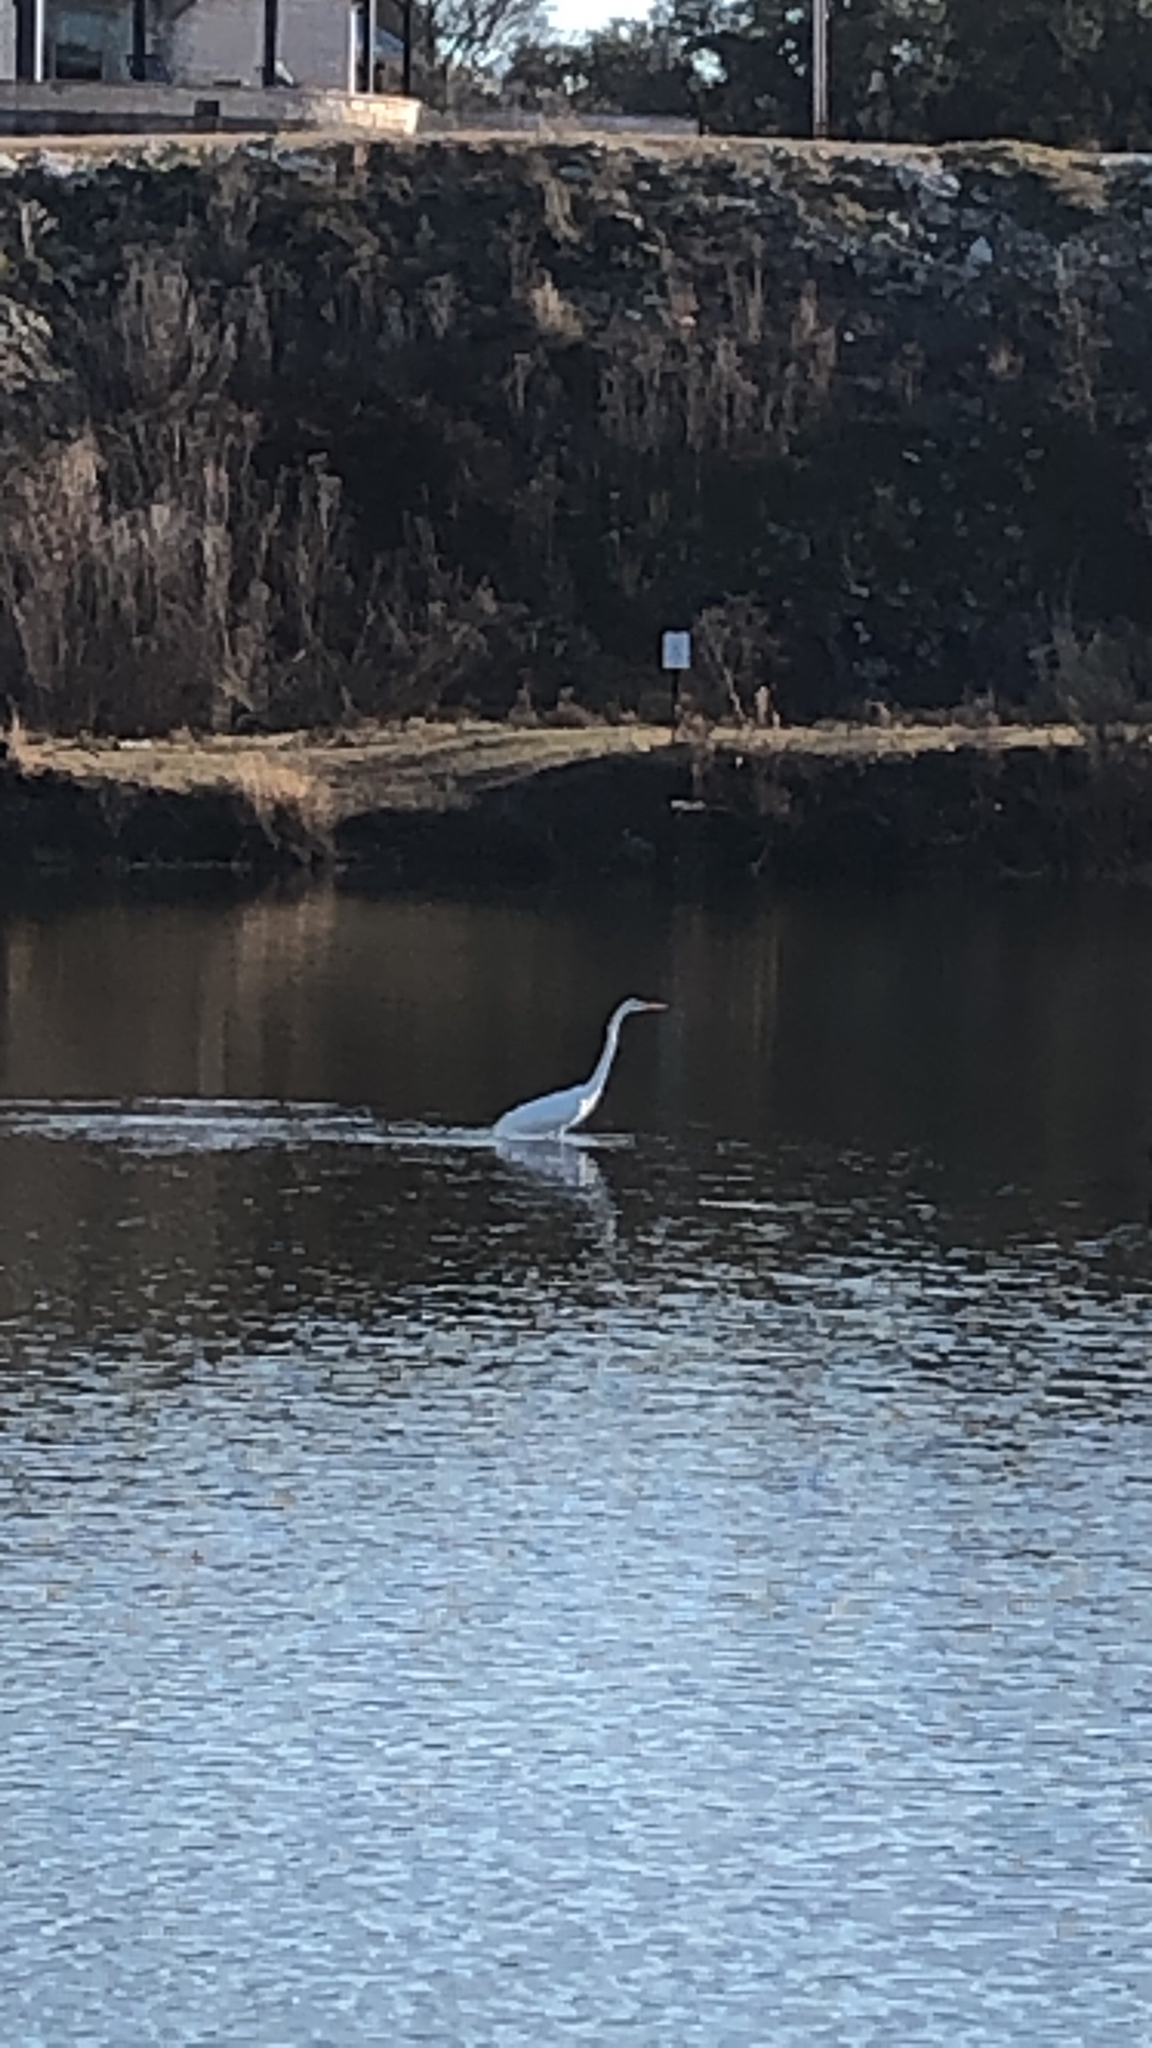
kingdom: Animalia
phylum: Chordata
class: Aves
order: Pelecaniformes
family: Ardeidae
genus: Ardea
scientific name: Ardea alba
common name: Great egret
